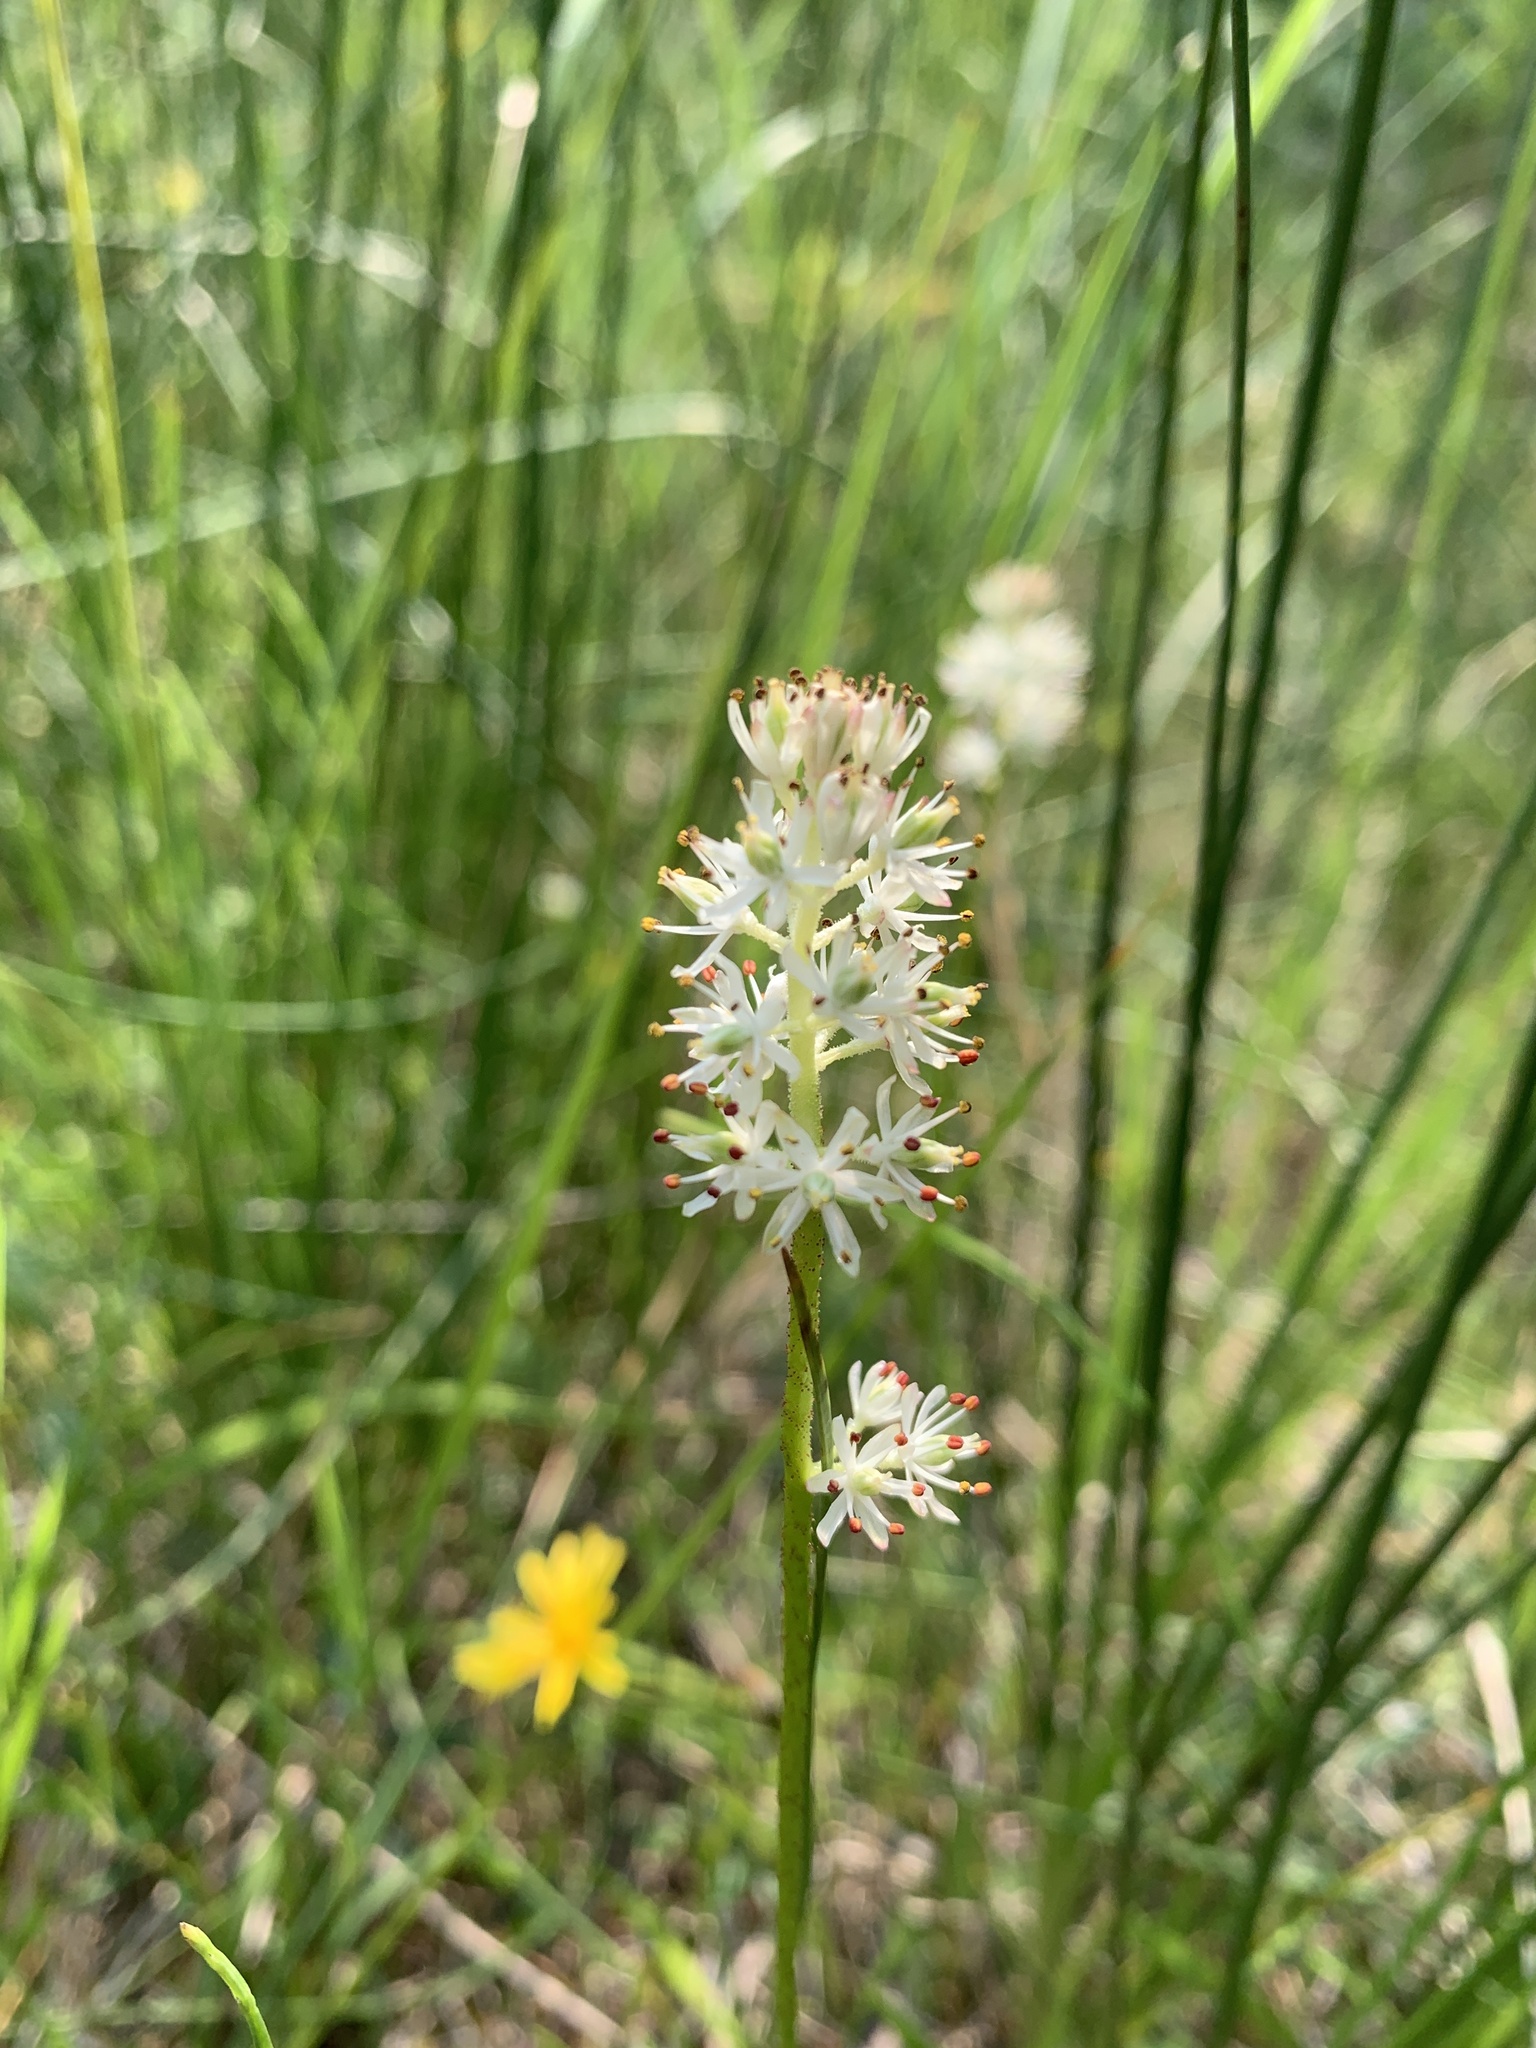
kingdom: Plantae
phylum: Tracheophyta
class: Liliopsida
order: Alismatales
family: Tofieldiaceae
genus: Triantha
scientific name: Triantha glutinosa
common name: Glutinous tofieldia
